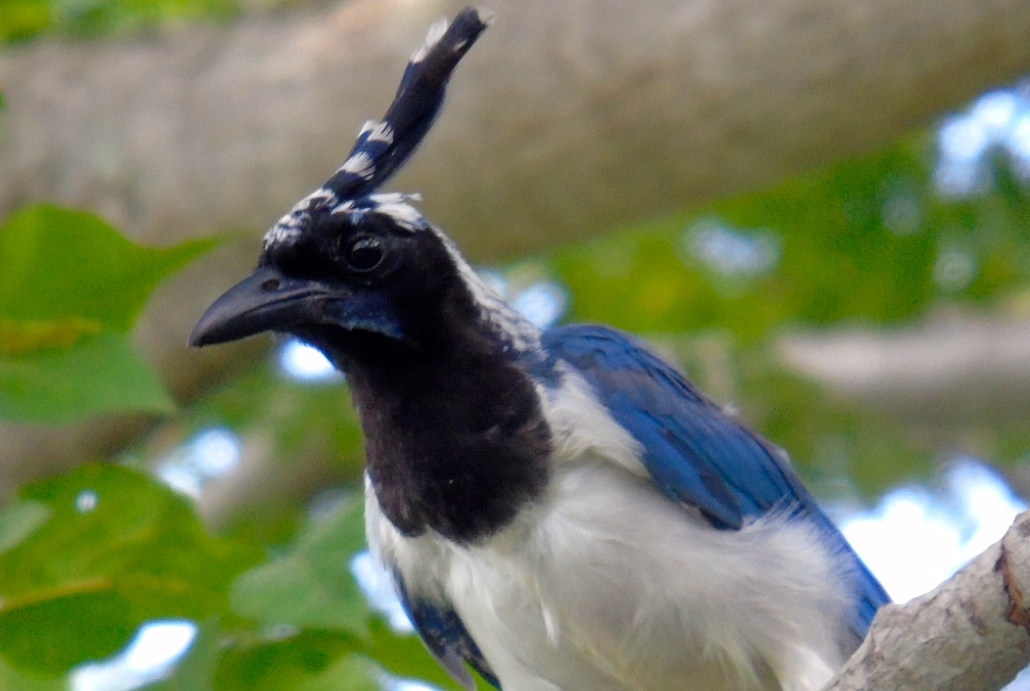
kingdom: Animalia
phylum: Chordata
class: Aves
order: Passeriformes
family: Corvidae
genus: Calocitta
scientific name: Calocitta colliei
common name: Black-throated magpie-jay
